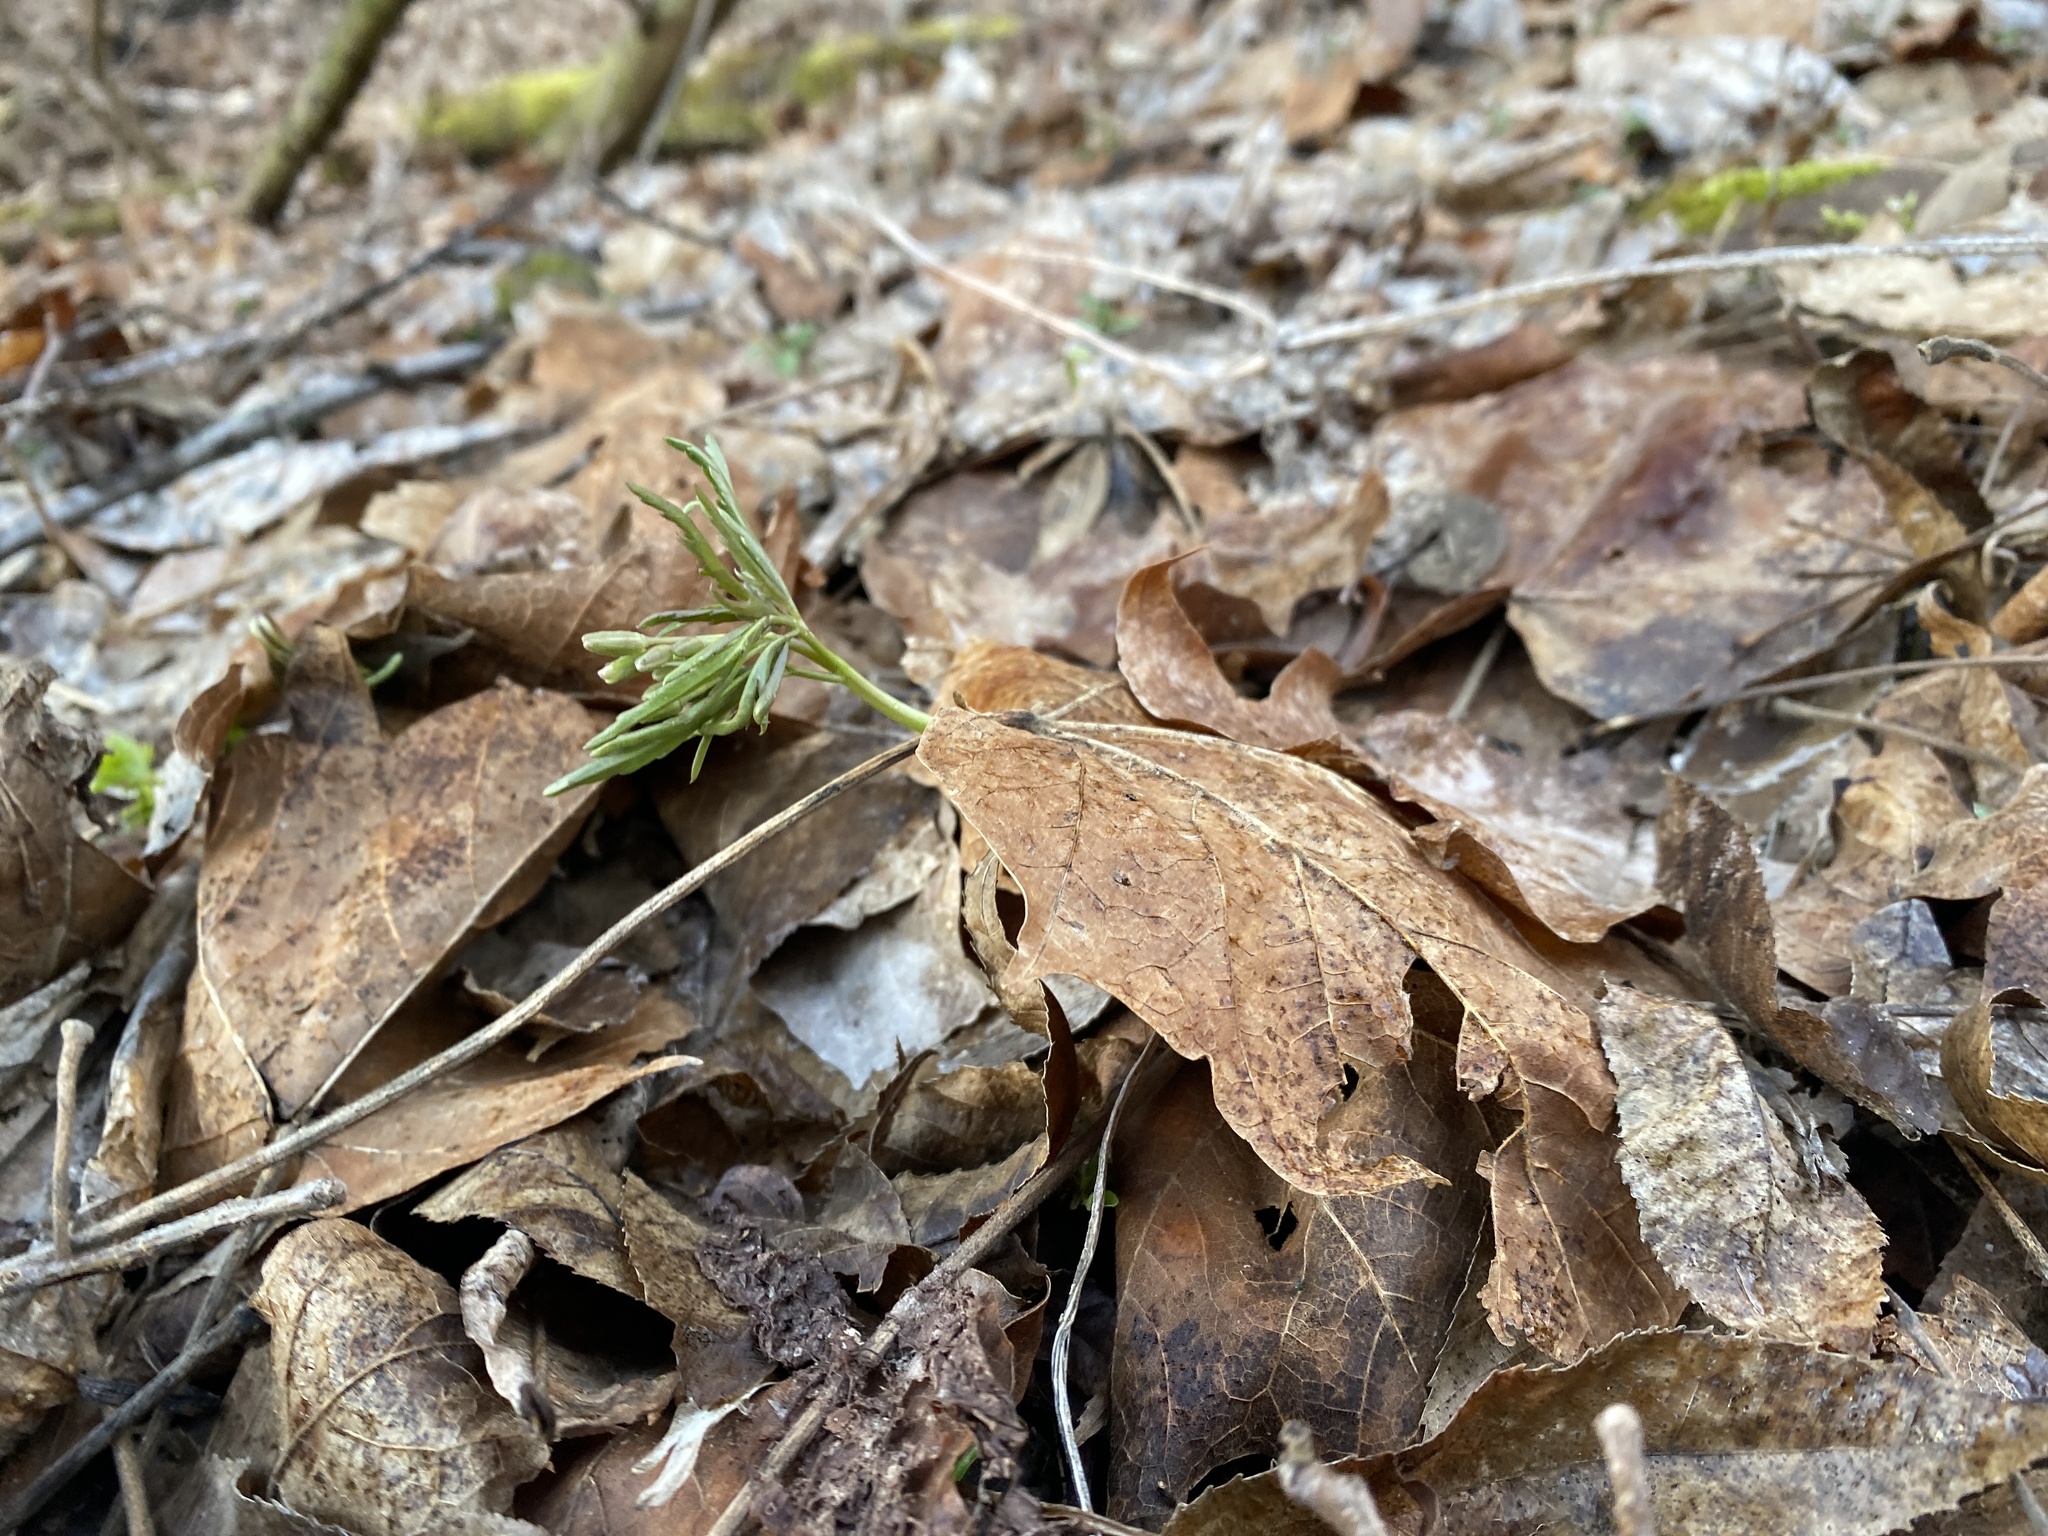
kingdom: Plantae
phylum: Tracheophyta
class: Magnoliopsida
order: Brassicales
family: Brassicaceae
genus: Cardamine
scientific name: Cardamine concatenata
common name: Cut-leaf toothcup
